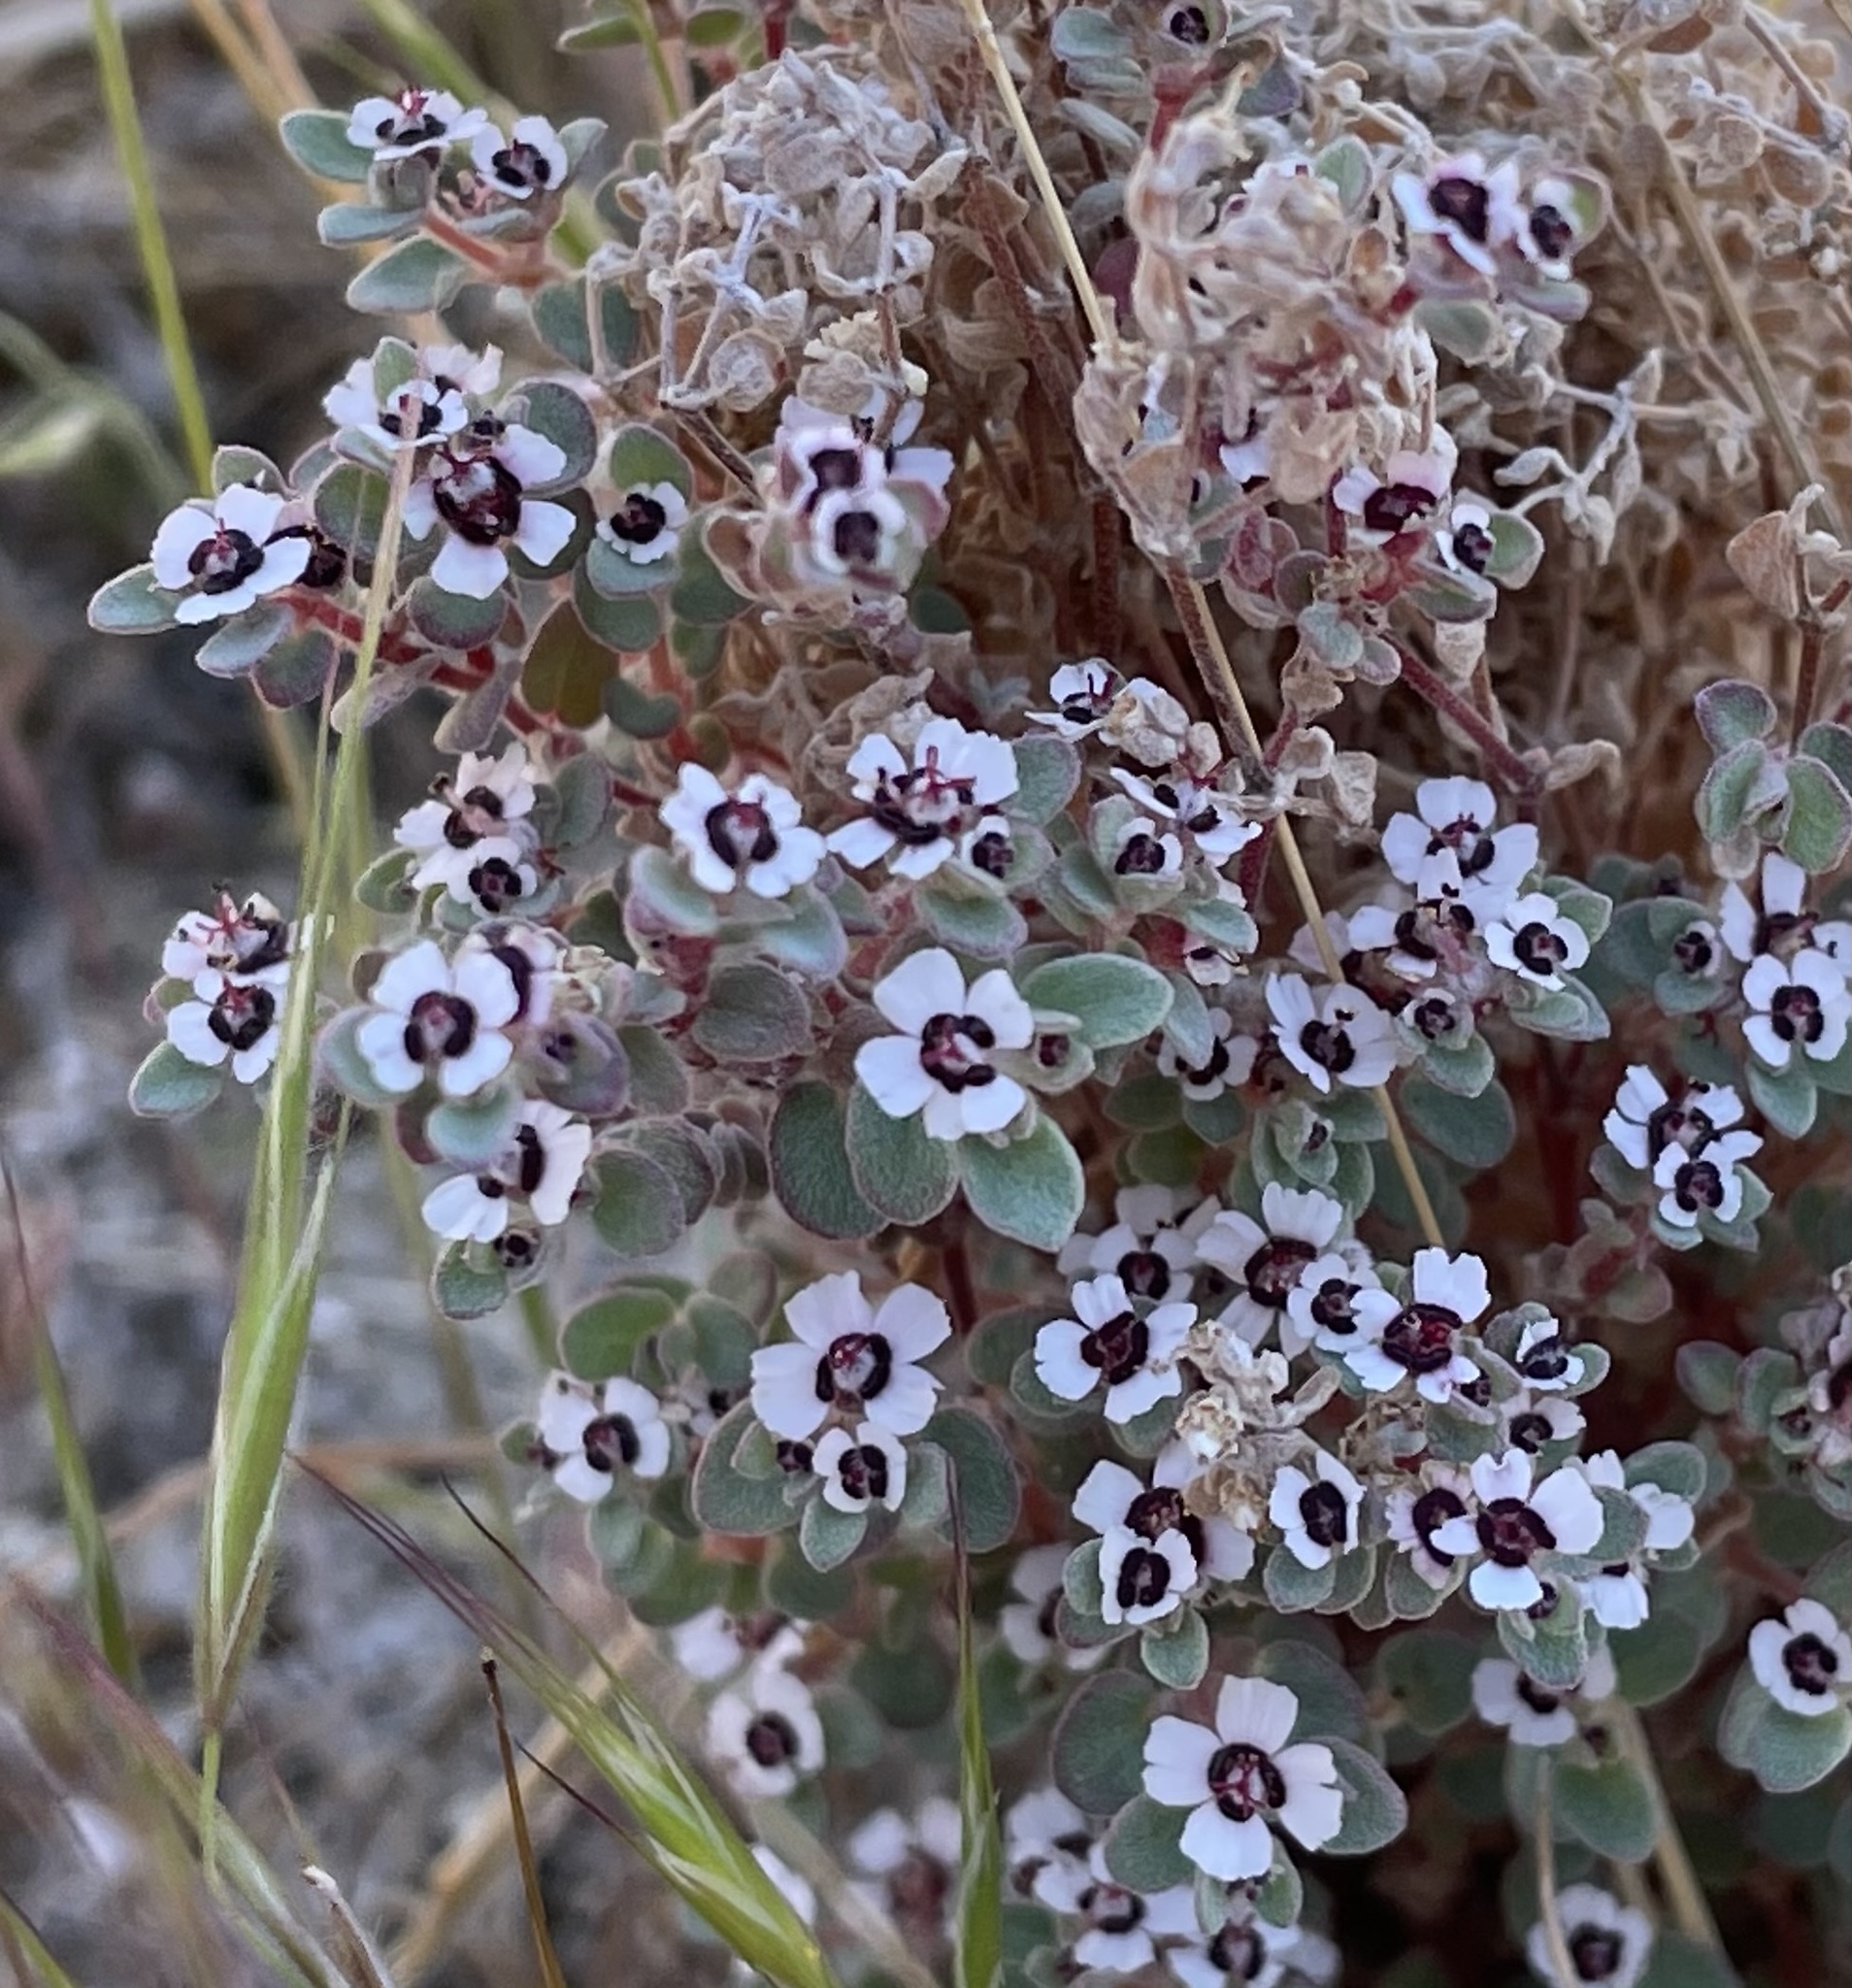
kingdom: Plantae
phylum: Tracheophyta
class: Magnoliopsida
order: Malpighiales
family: Euphorbiaceae
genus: Euphorbia
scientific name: Euphorbia melanadenia
